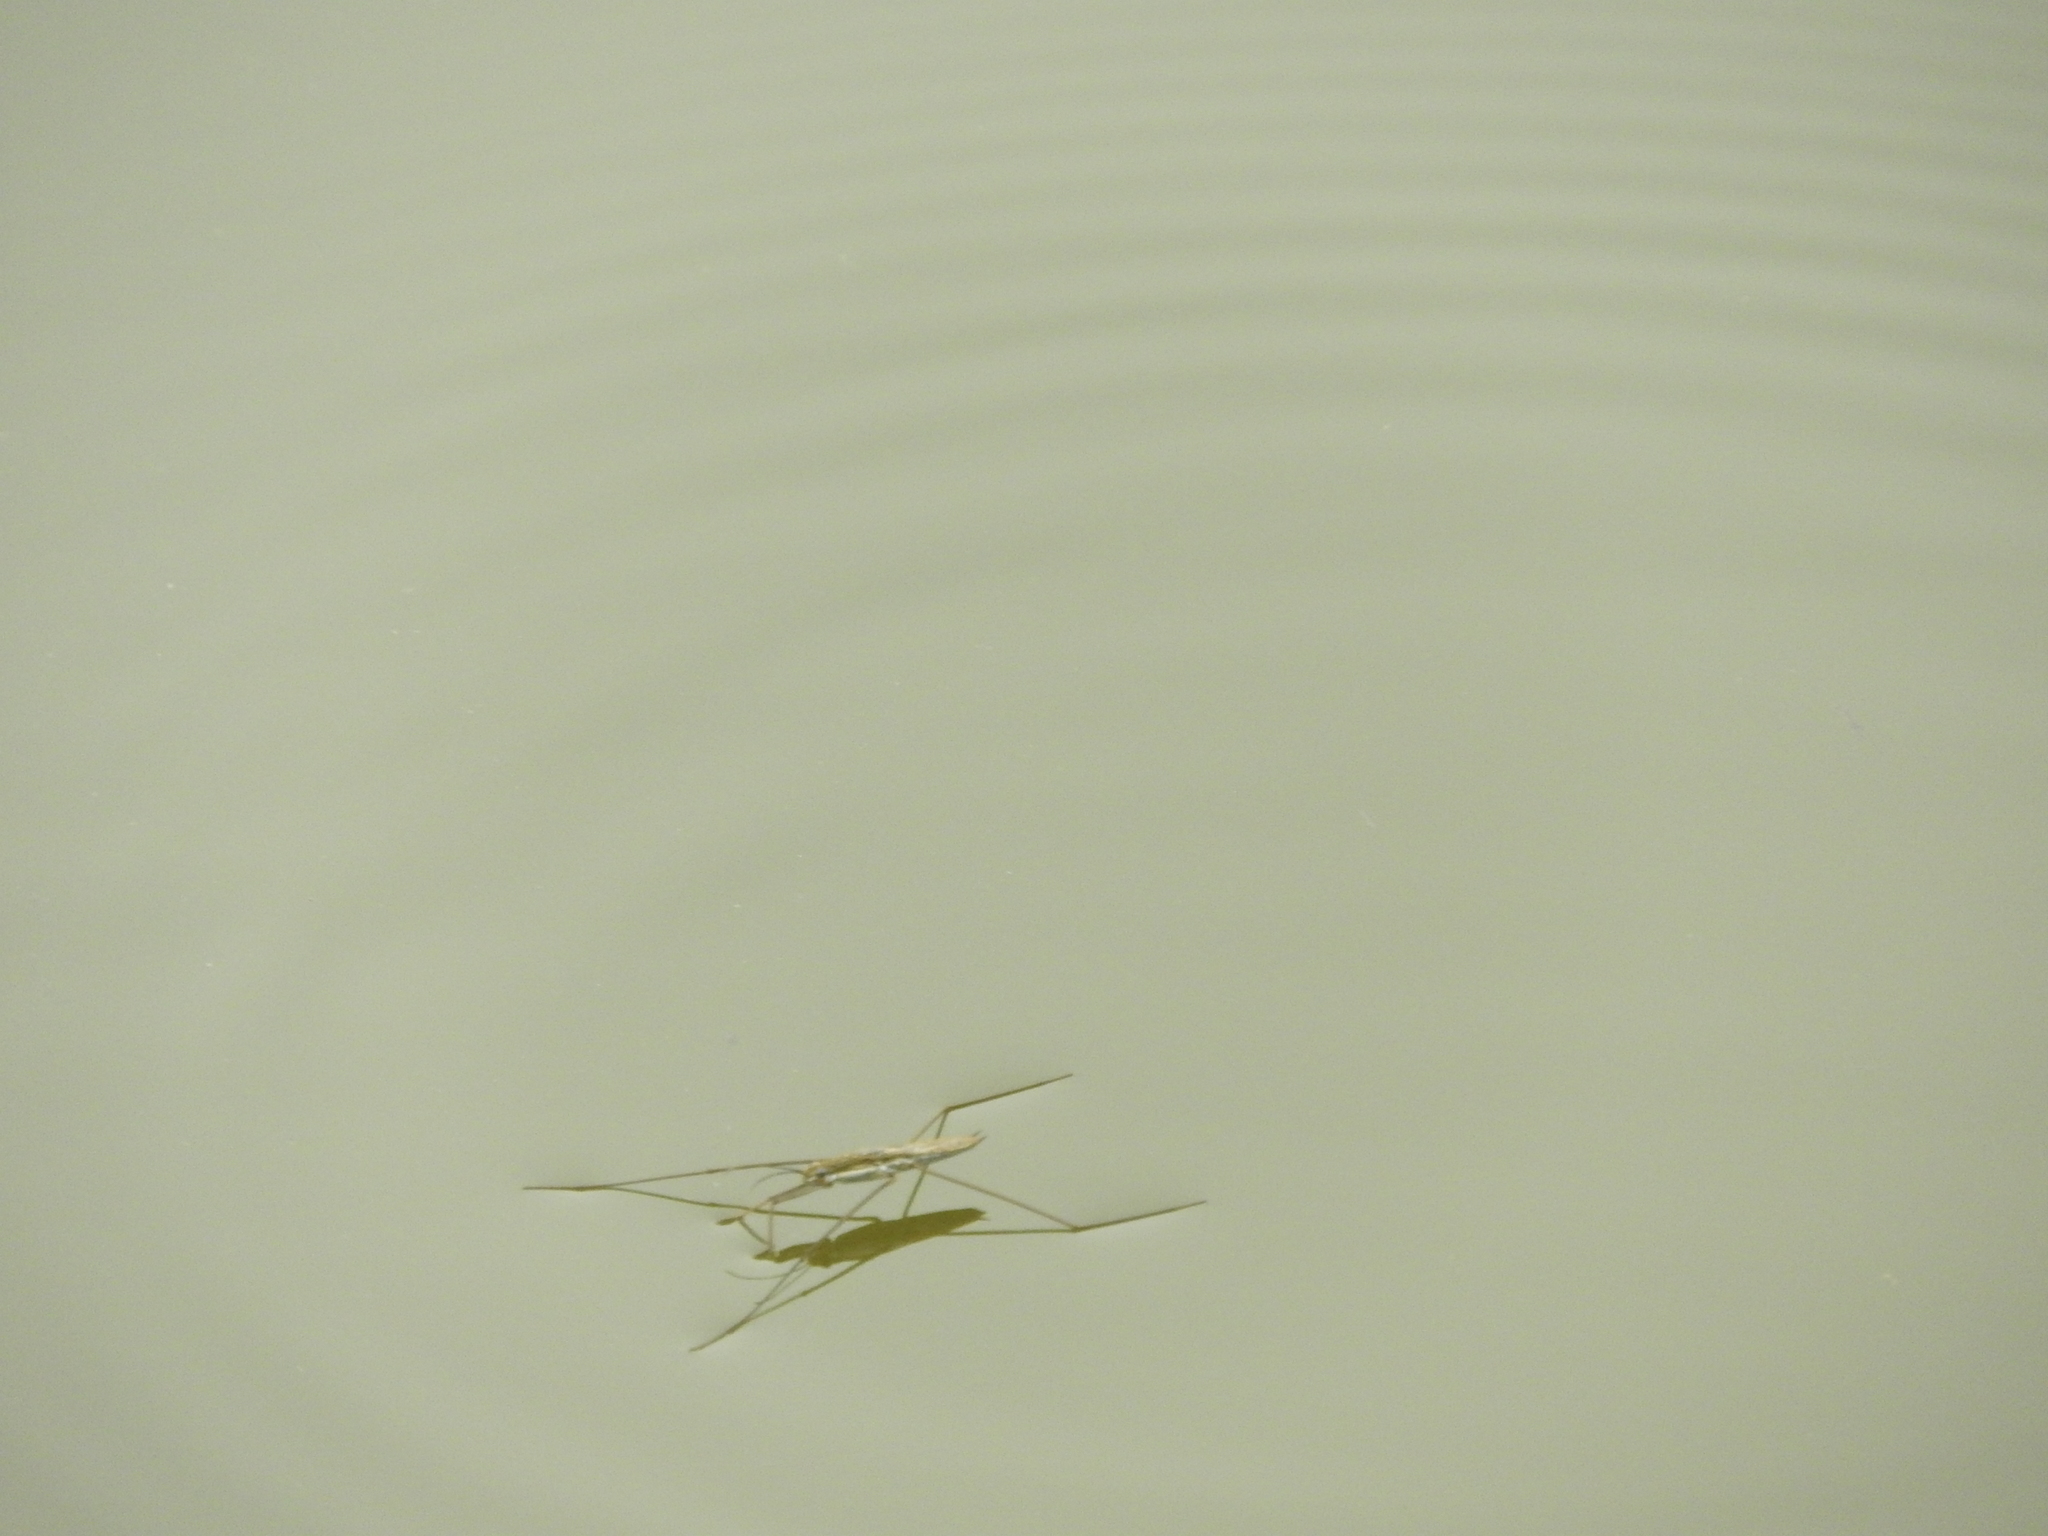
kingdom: Animalia
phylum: Arthropoda
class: Insecta
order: Hemiptera
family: Gerridae
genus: Aquarius
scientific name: Aquarius paludum
